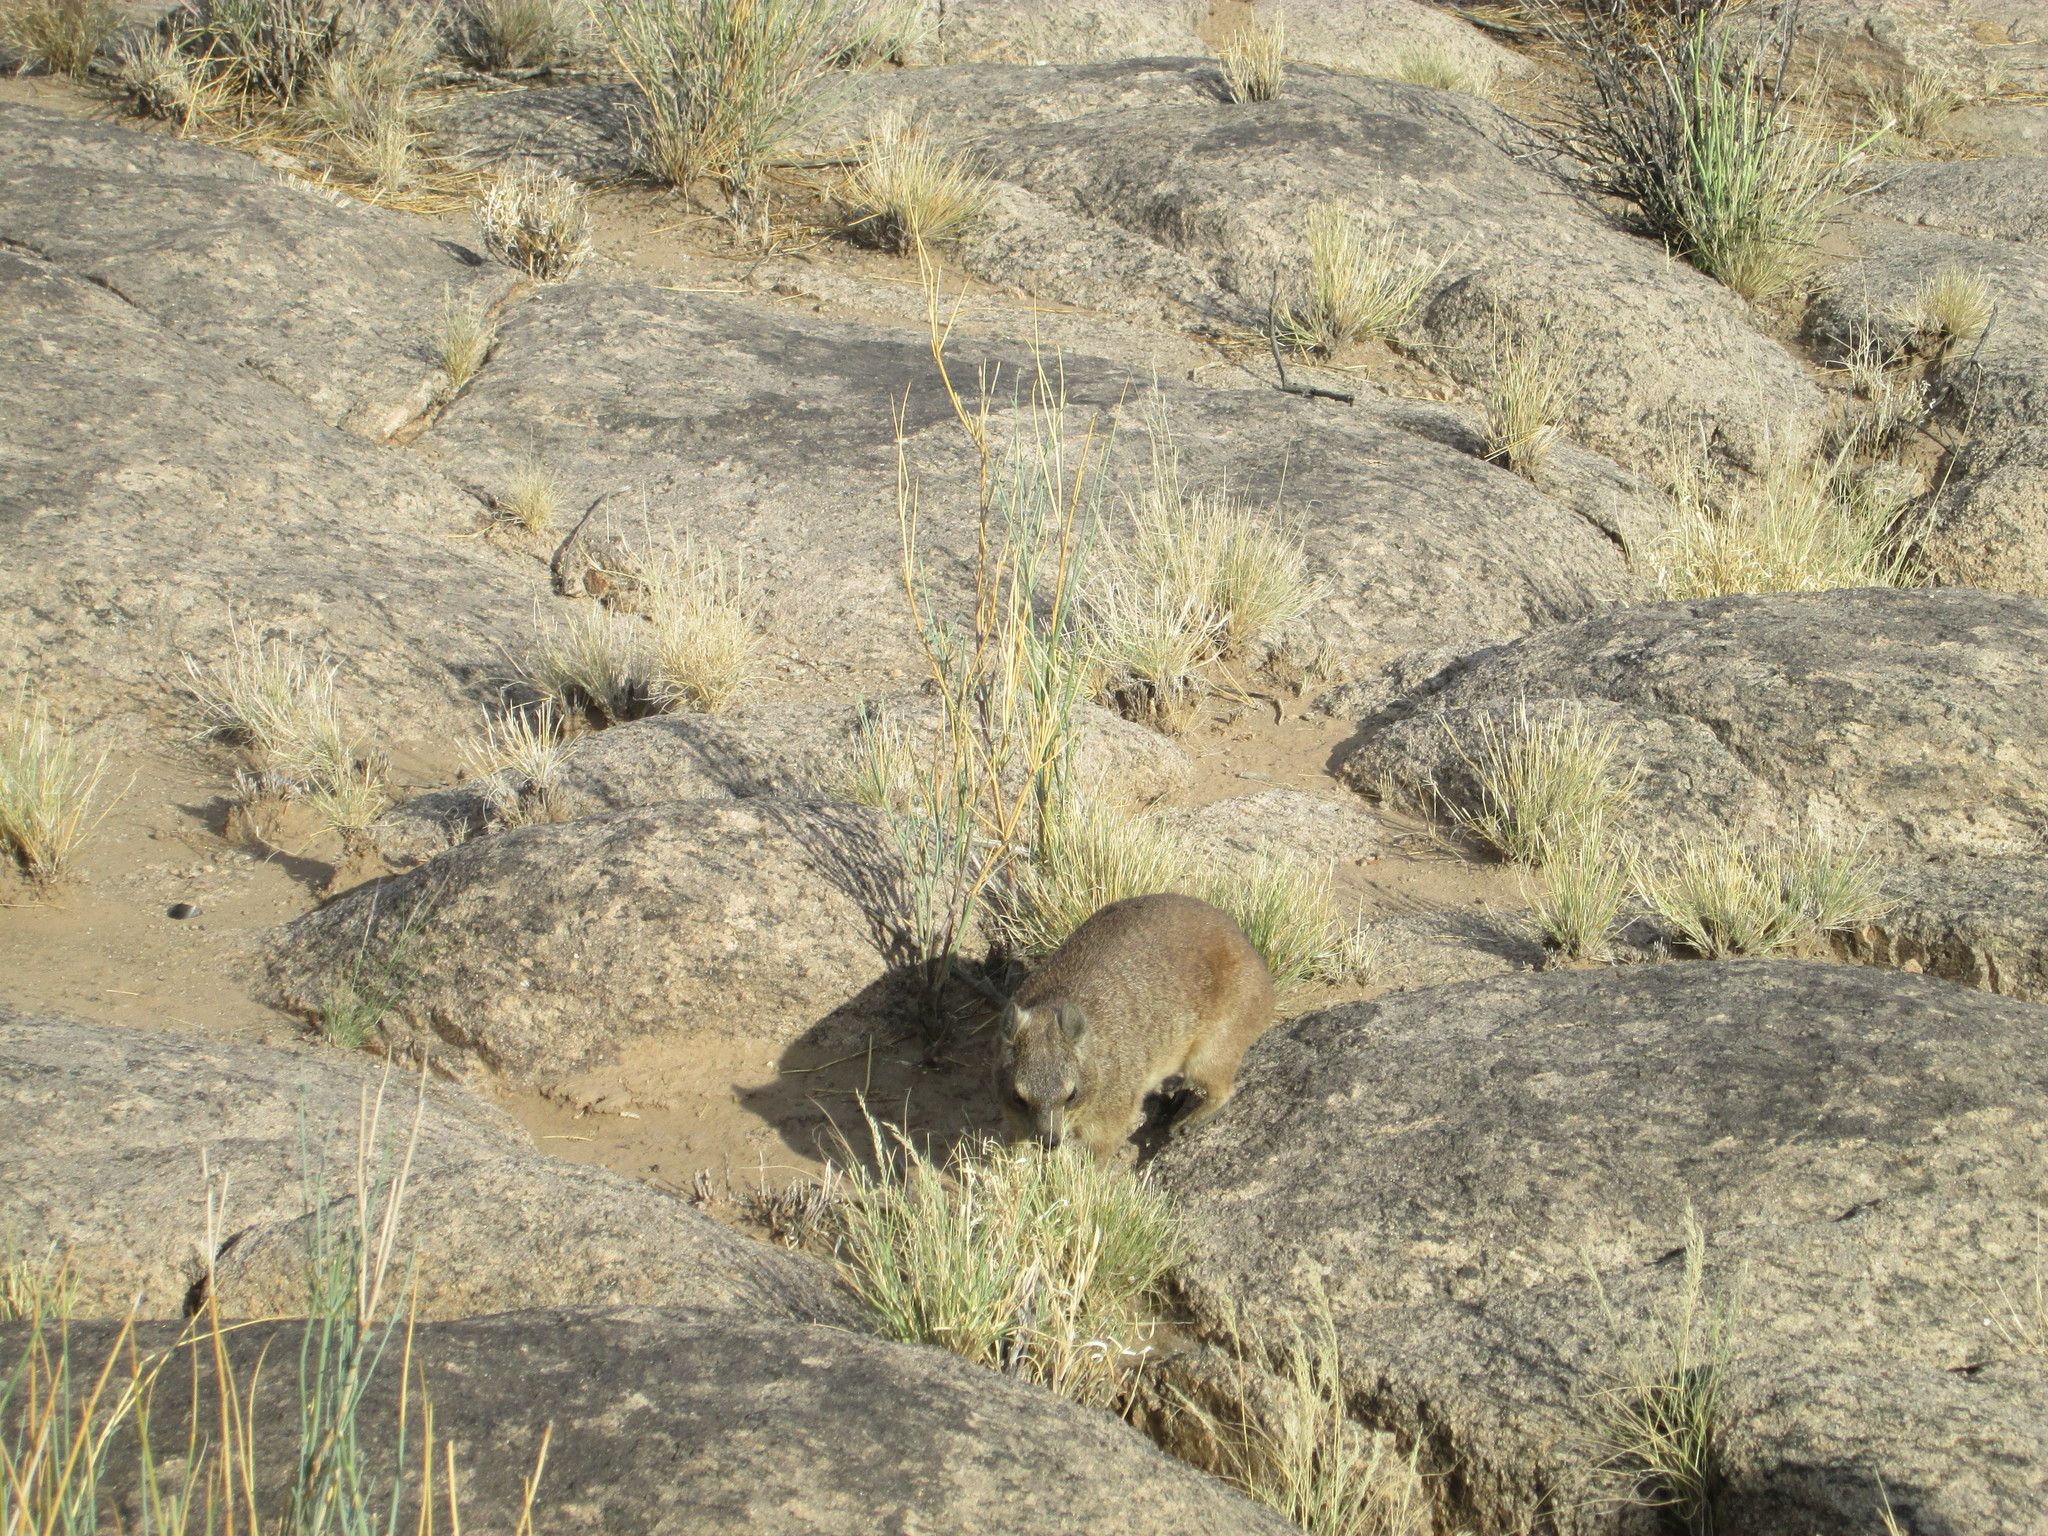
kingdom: Animalia
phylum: Chordata
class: Mammalia
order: Hyracoidea
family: Procaviidae
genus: Procavia
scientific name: Procavia capensis
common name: Rock hyrax
